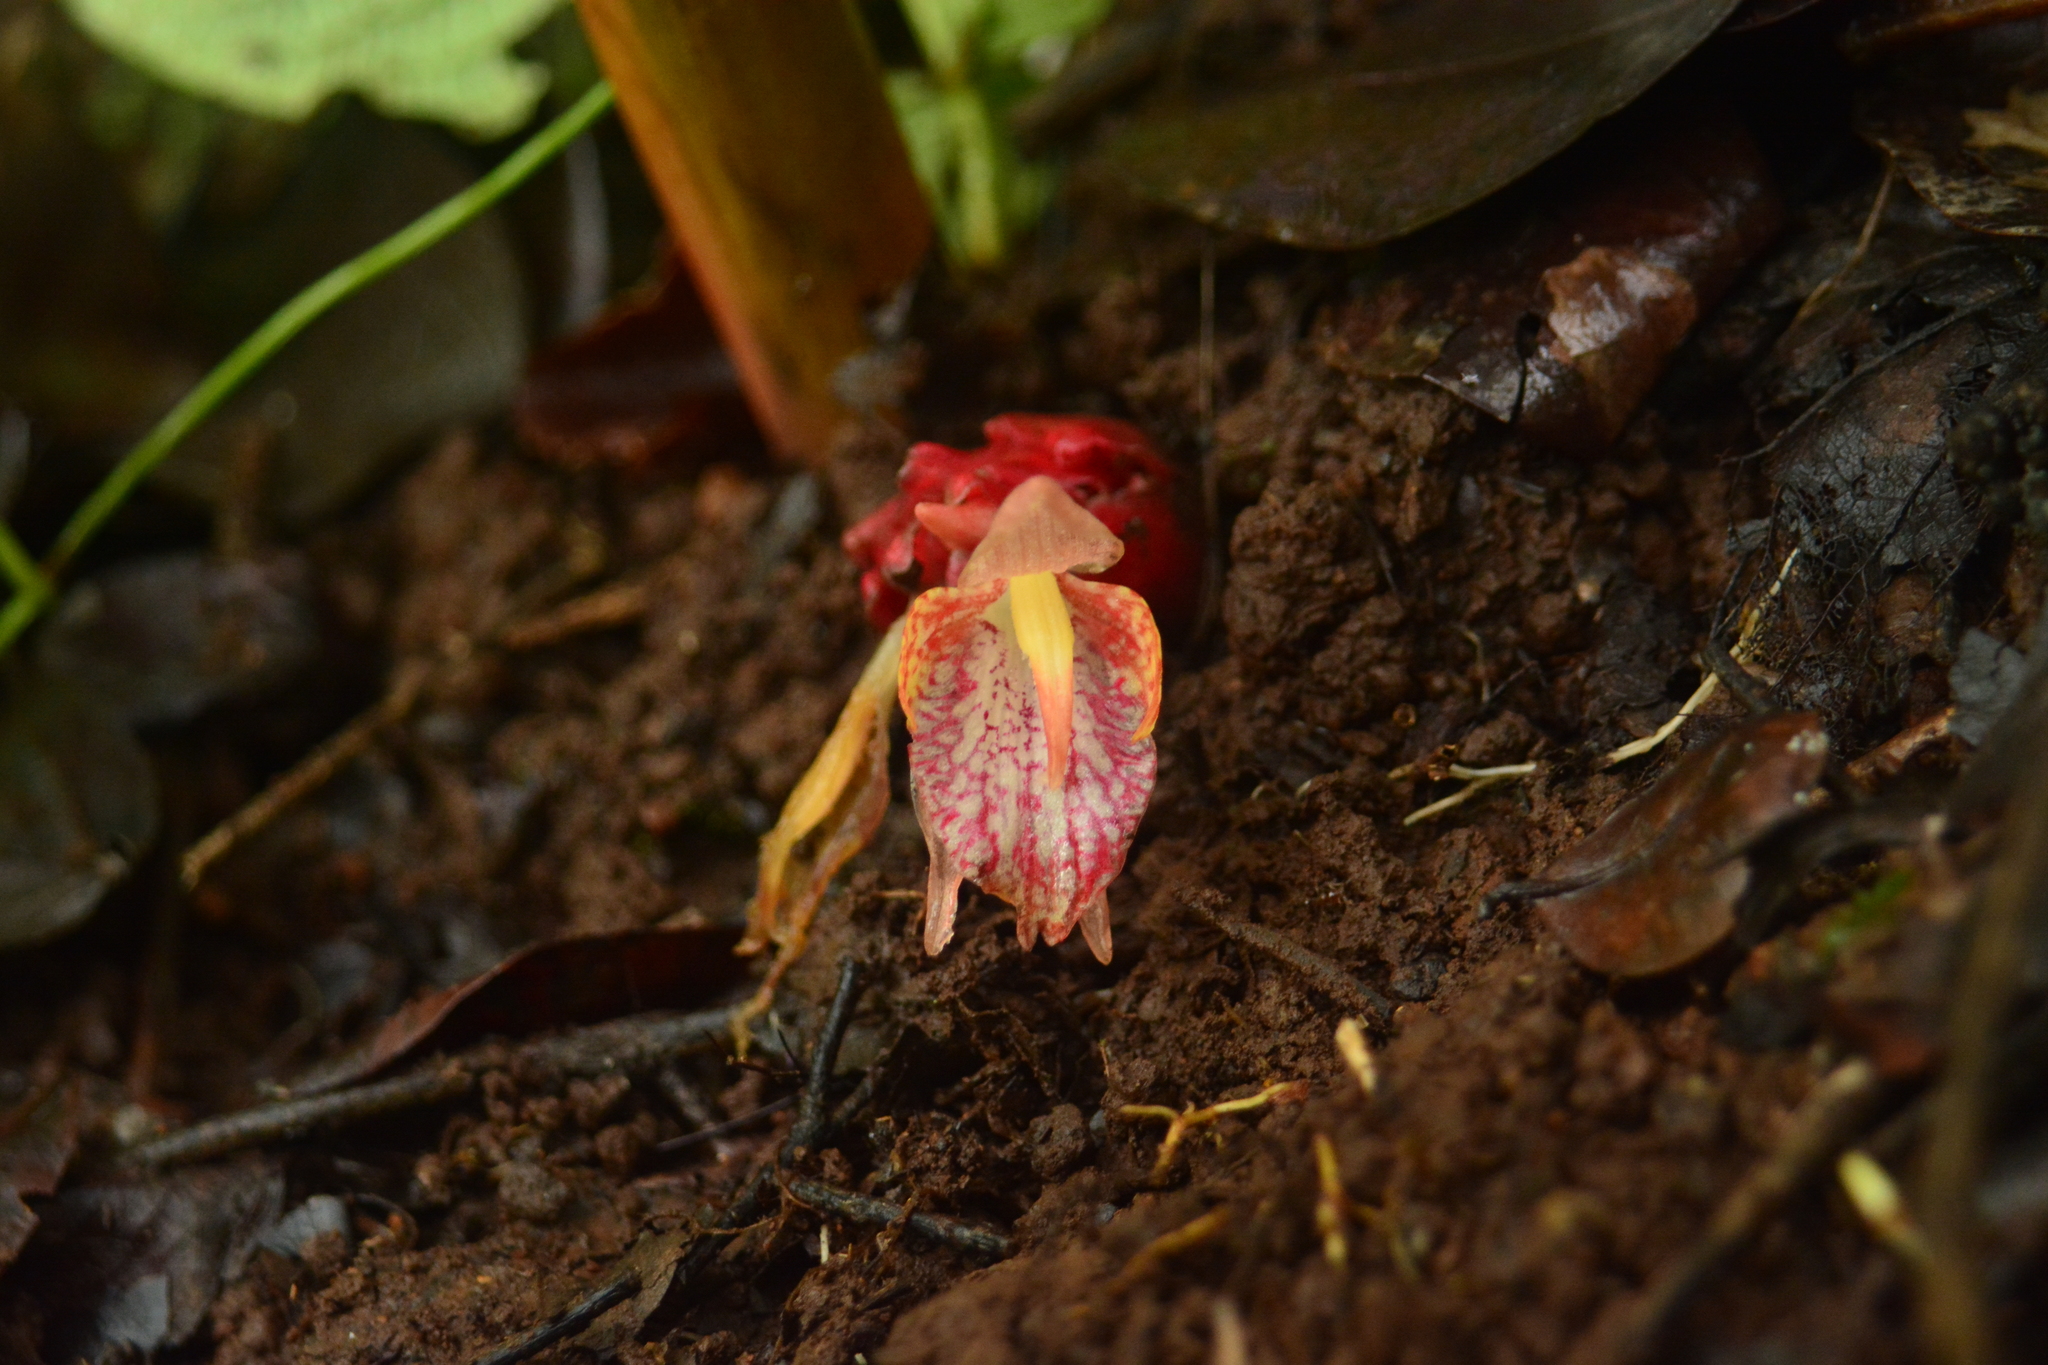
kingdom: Plantae
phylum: Tracheophyta
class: Liliopsida
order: Zingiberales
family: Zingiberaceae
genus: Zingiber
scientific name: Zingiber nimmonii
